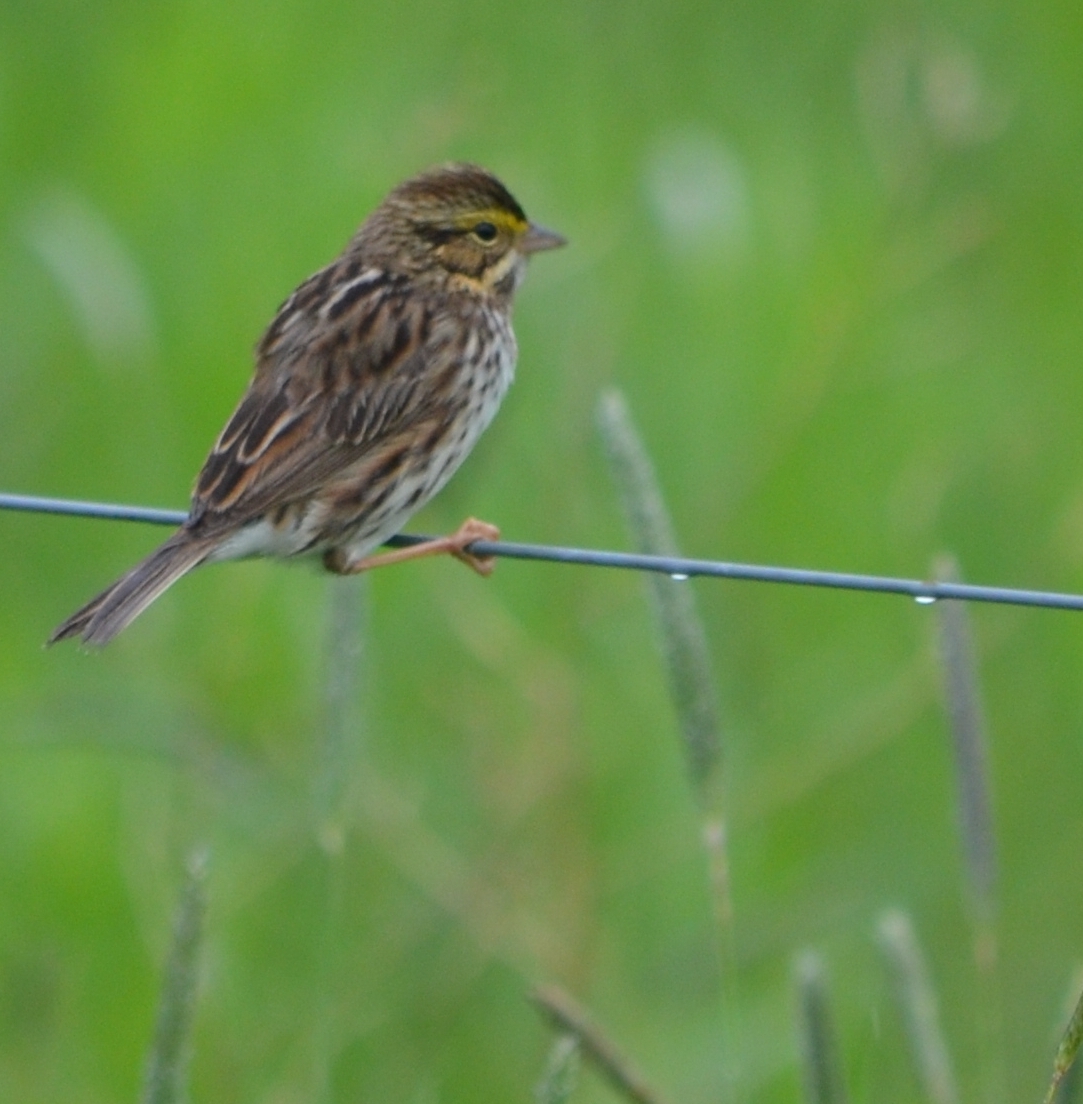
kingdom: Animalia
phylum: Chordata
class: Aves
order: Passeriformes
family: Passerellidae
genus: Passerculus
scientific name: Passerculus sandwichensis
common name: Savannah sparrow
